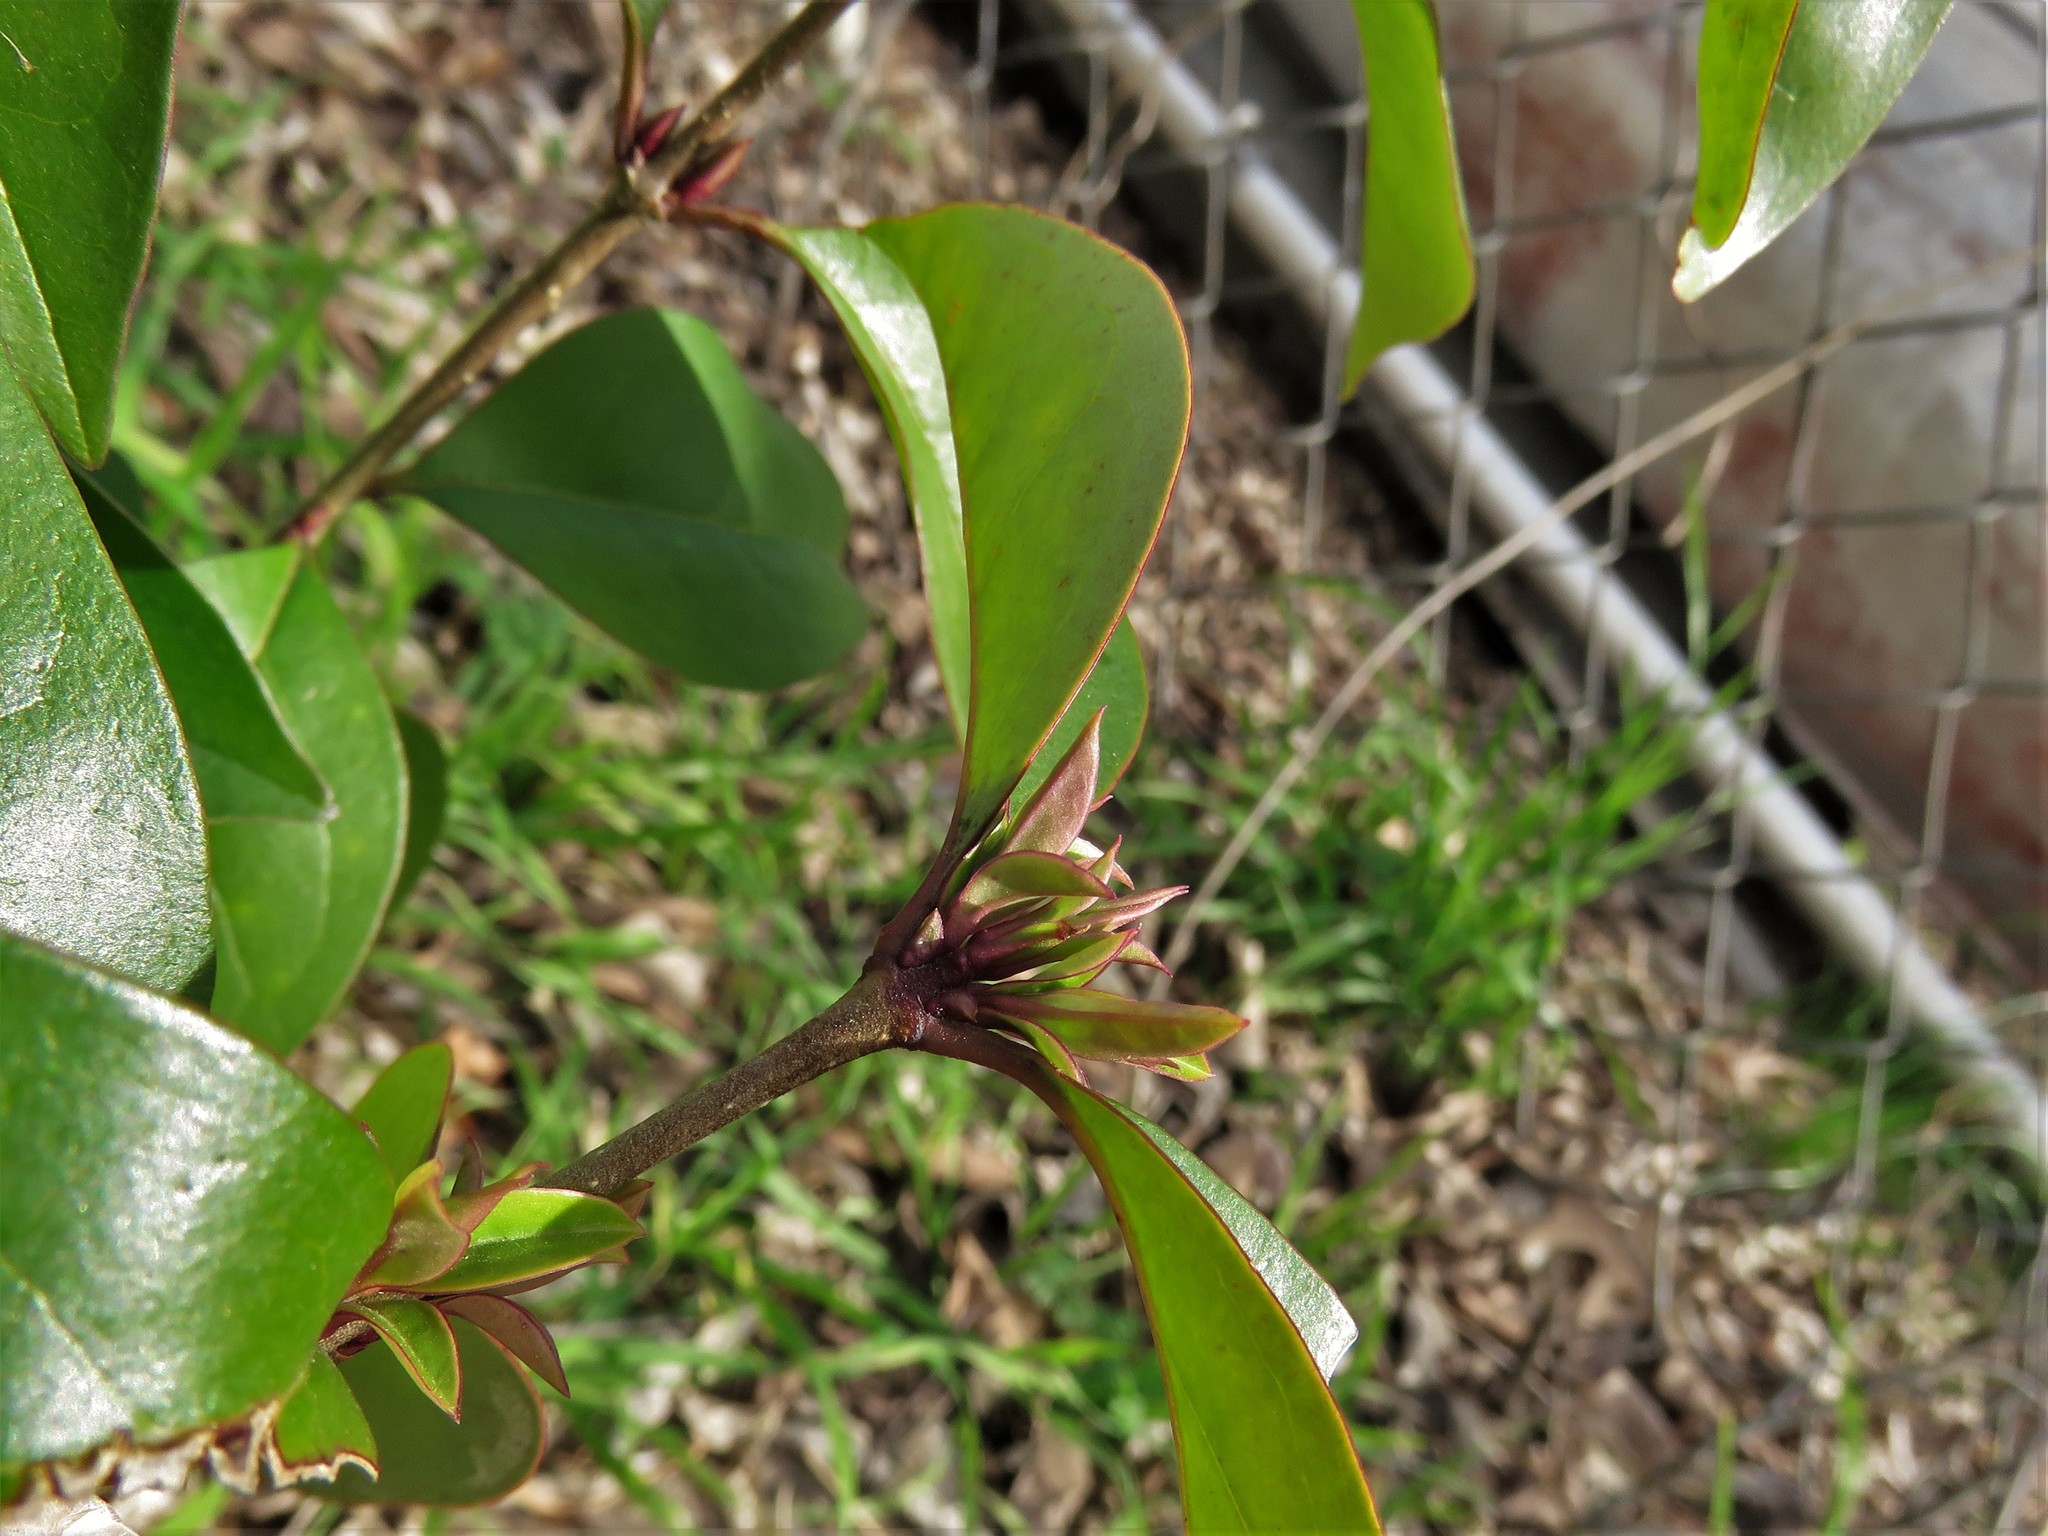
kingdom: Plantae
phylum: Tracheophyta
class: Magnoliopsida
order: Lamiales
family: Oleaceae
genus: Ligustrum
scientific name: Ligustrum lucidum
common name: Glossy privet
